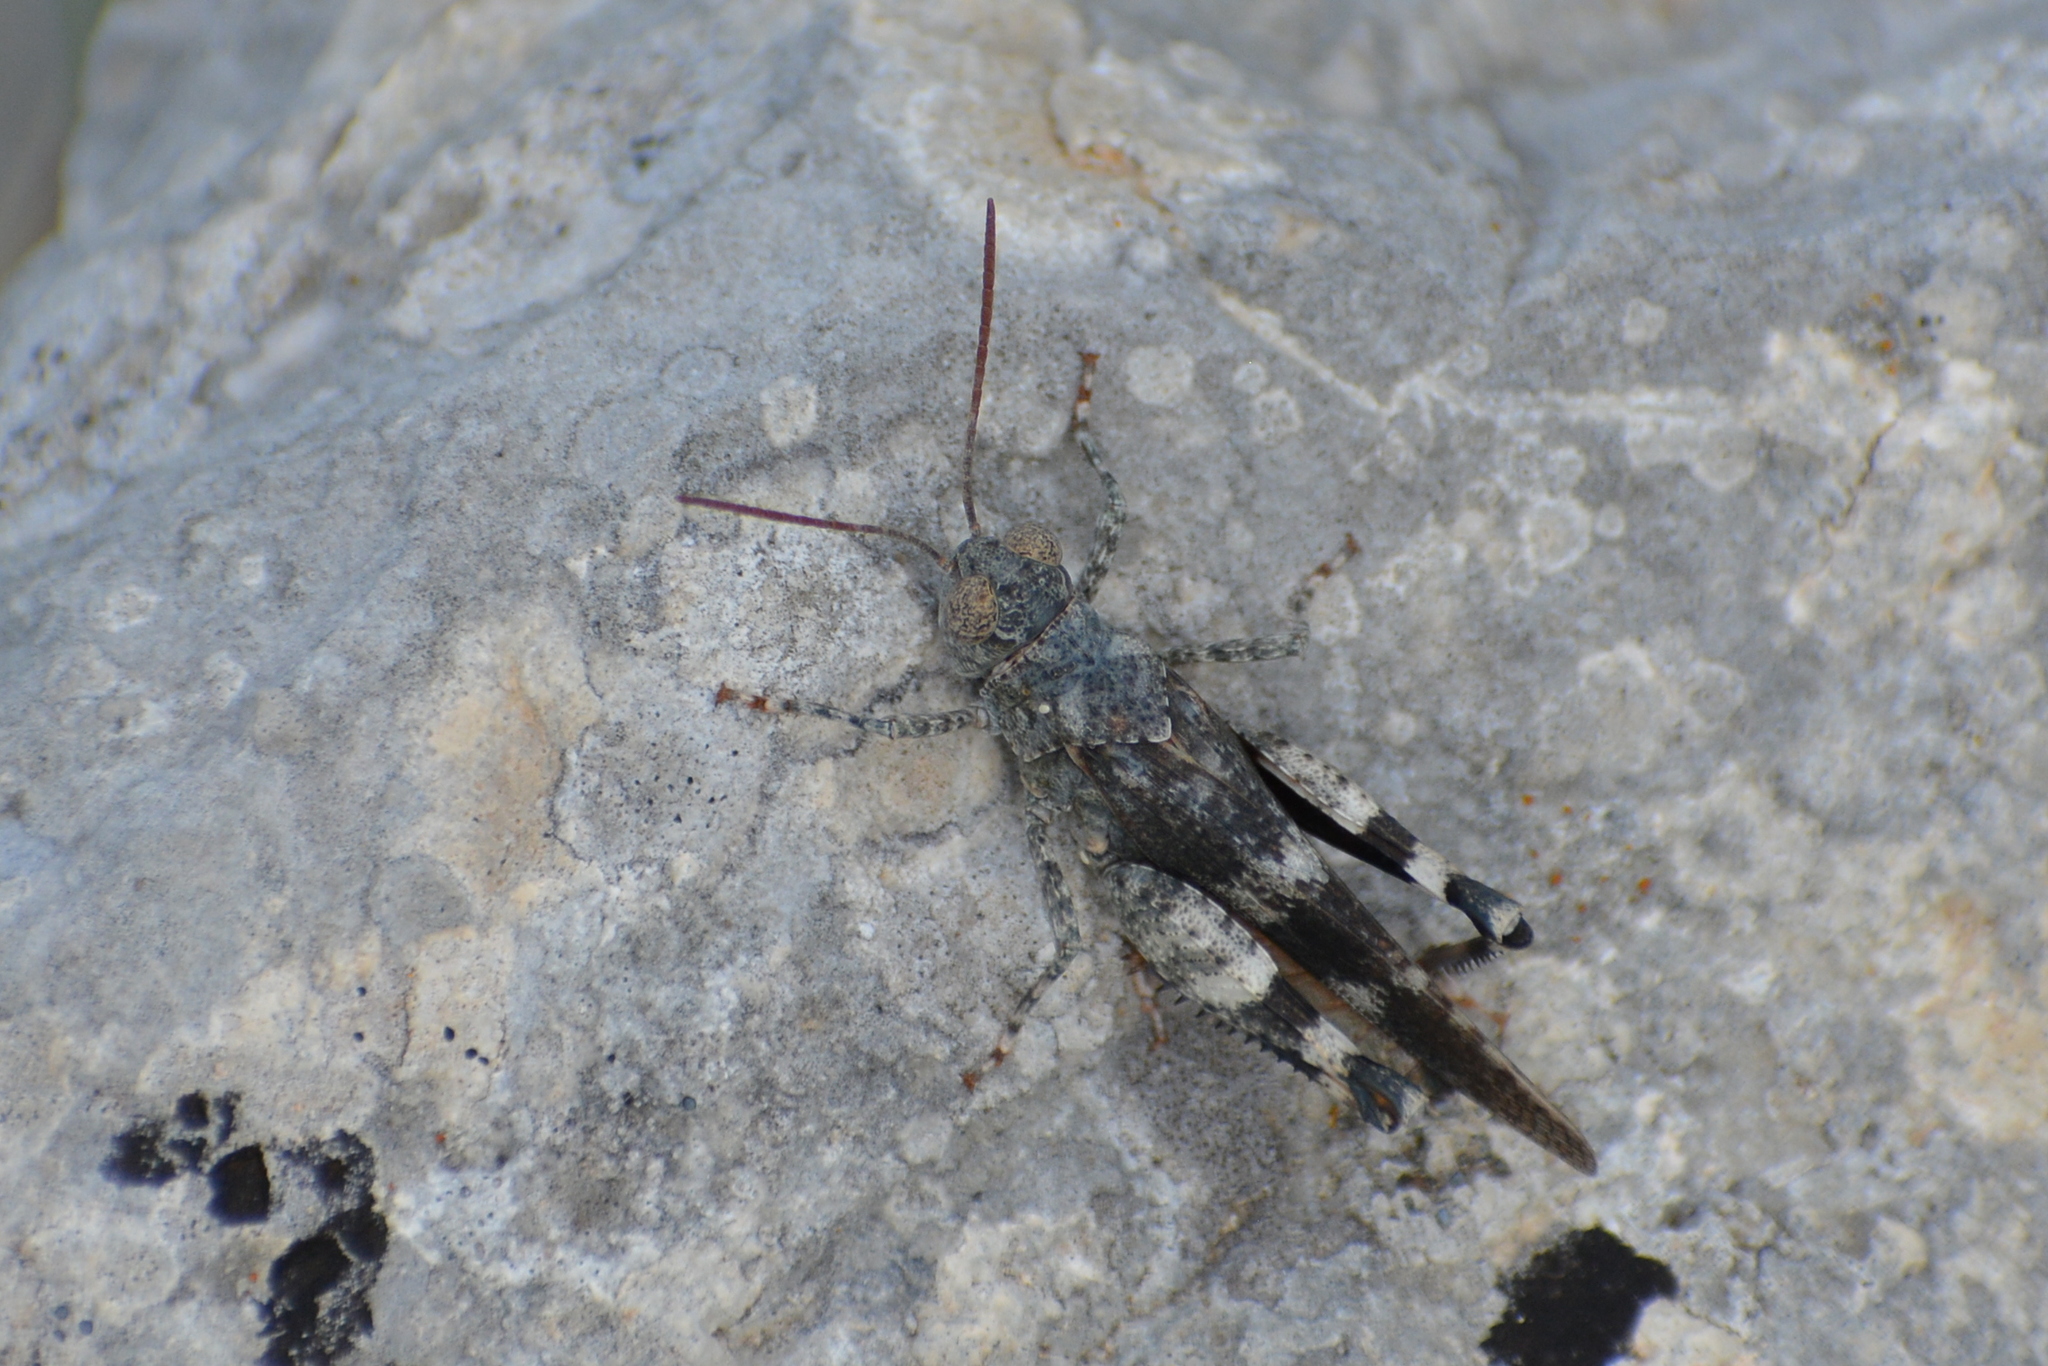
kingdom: Animalia
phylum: Arthropoda
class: Insecta
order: Orthoptera
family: Acrididae
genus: Oedipoda
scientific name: Oedipoda germanica
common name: Red band-winged grasshopper
